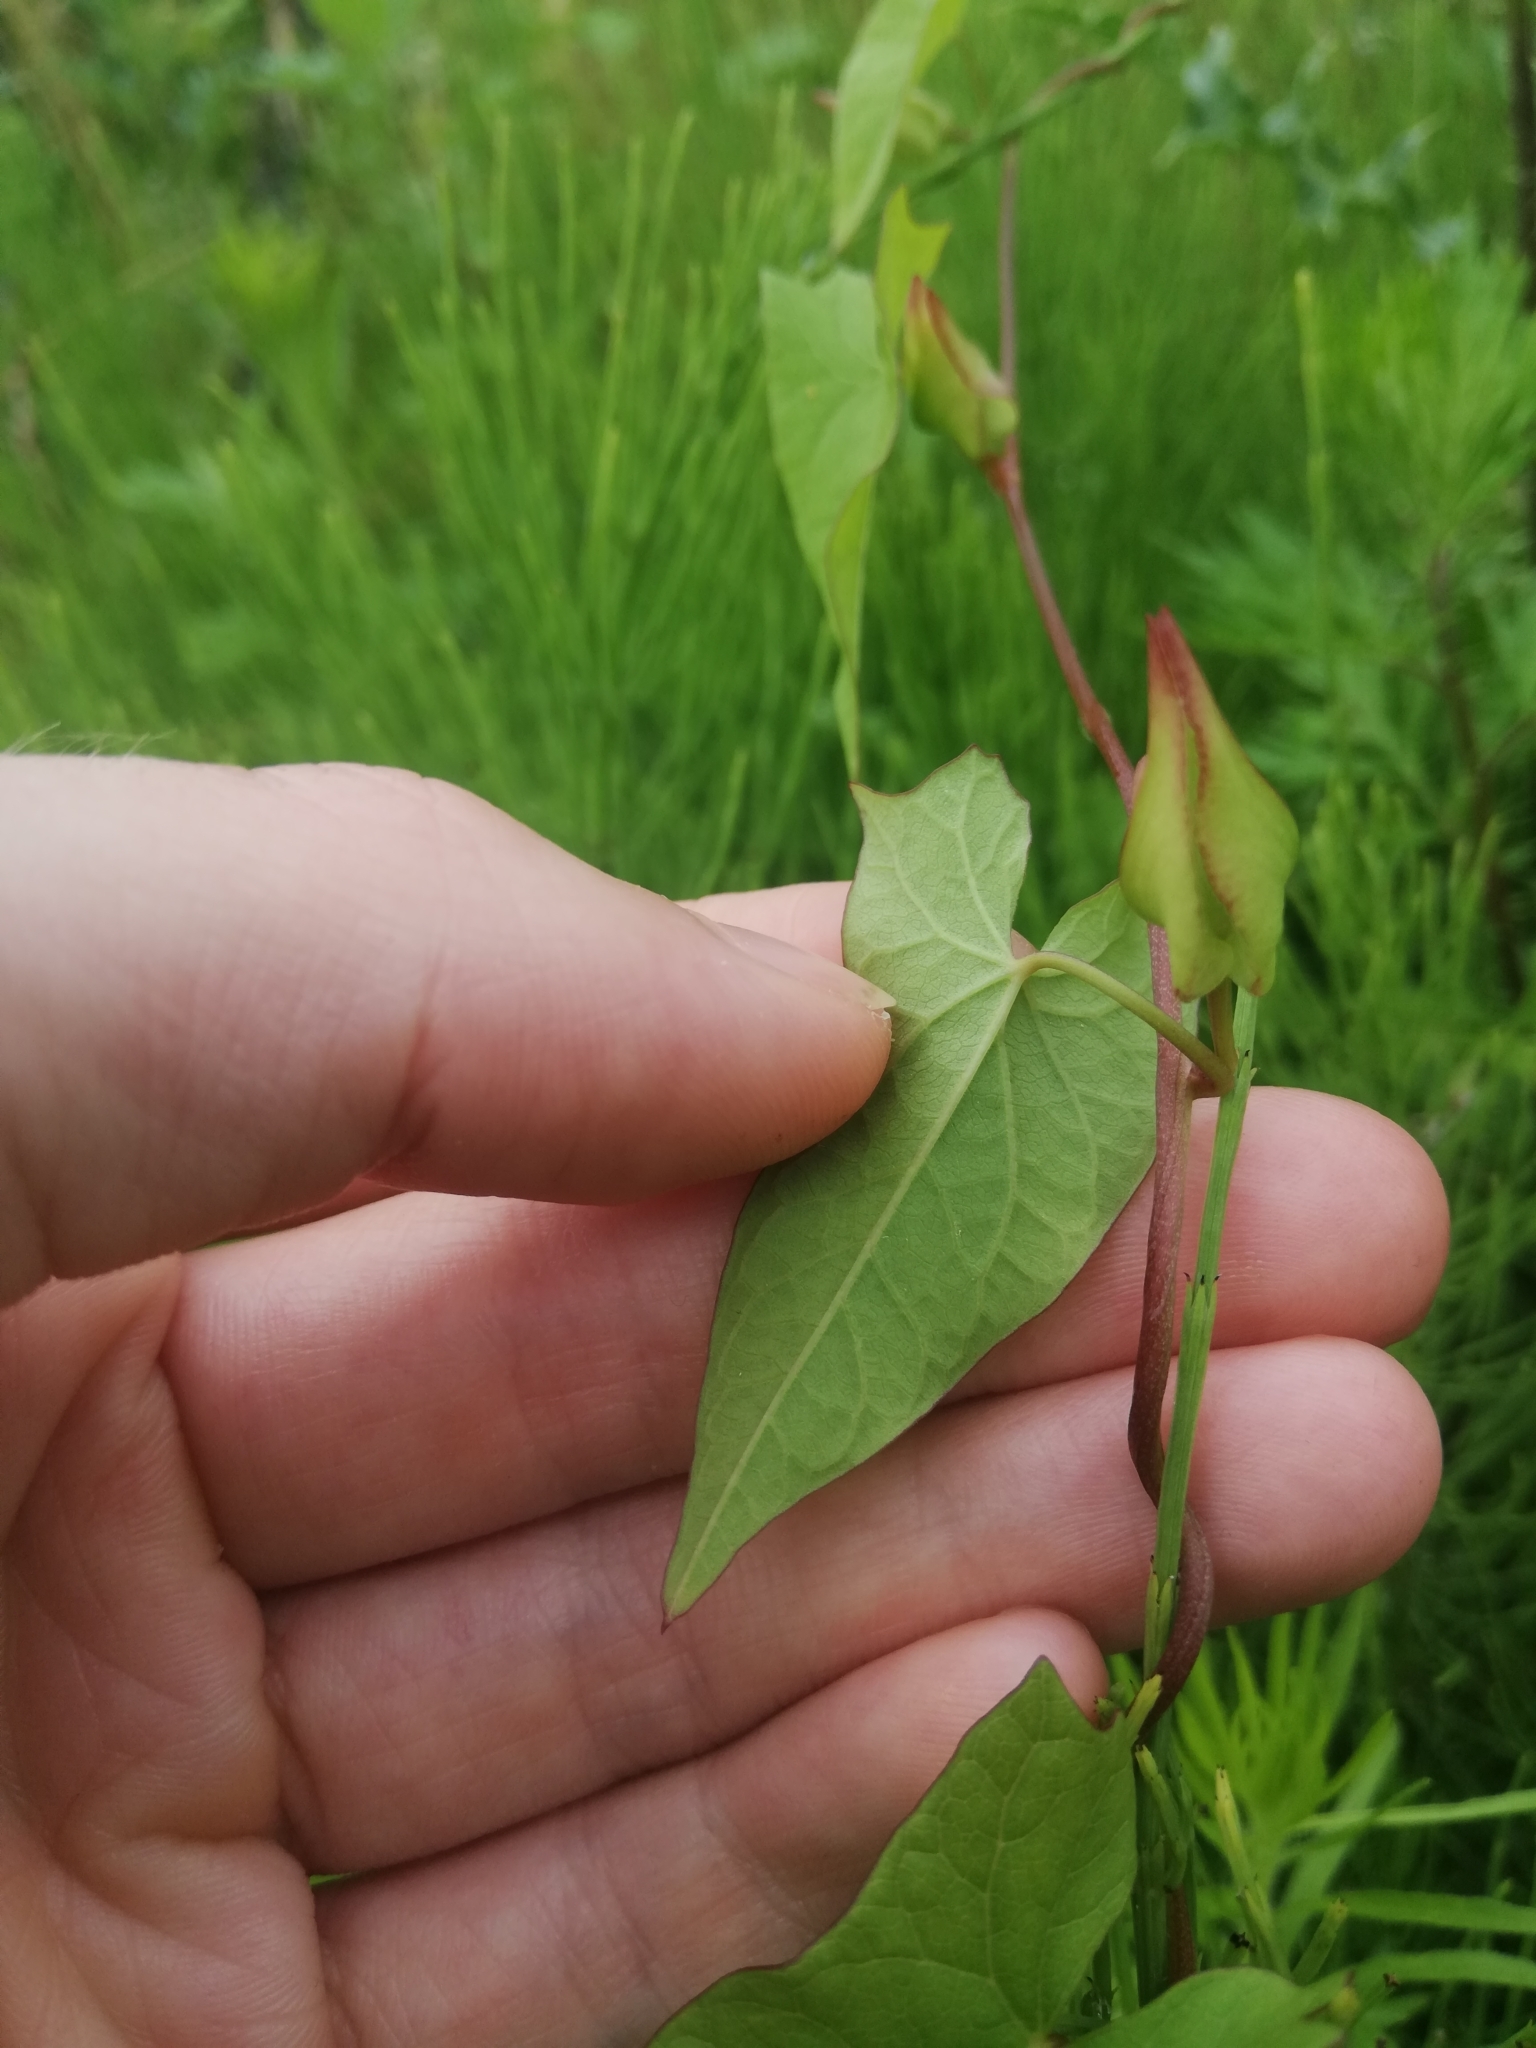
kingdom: Plantae
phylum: Tracheophyta
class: Magnoliopsida
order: Solanales
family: Convolvulaceae
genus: Calystegia
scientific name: Calystegia sepium
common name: Hedge bindweed
